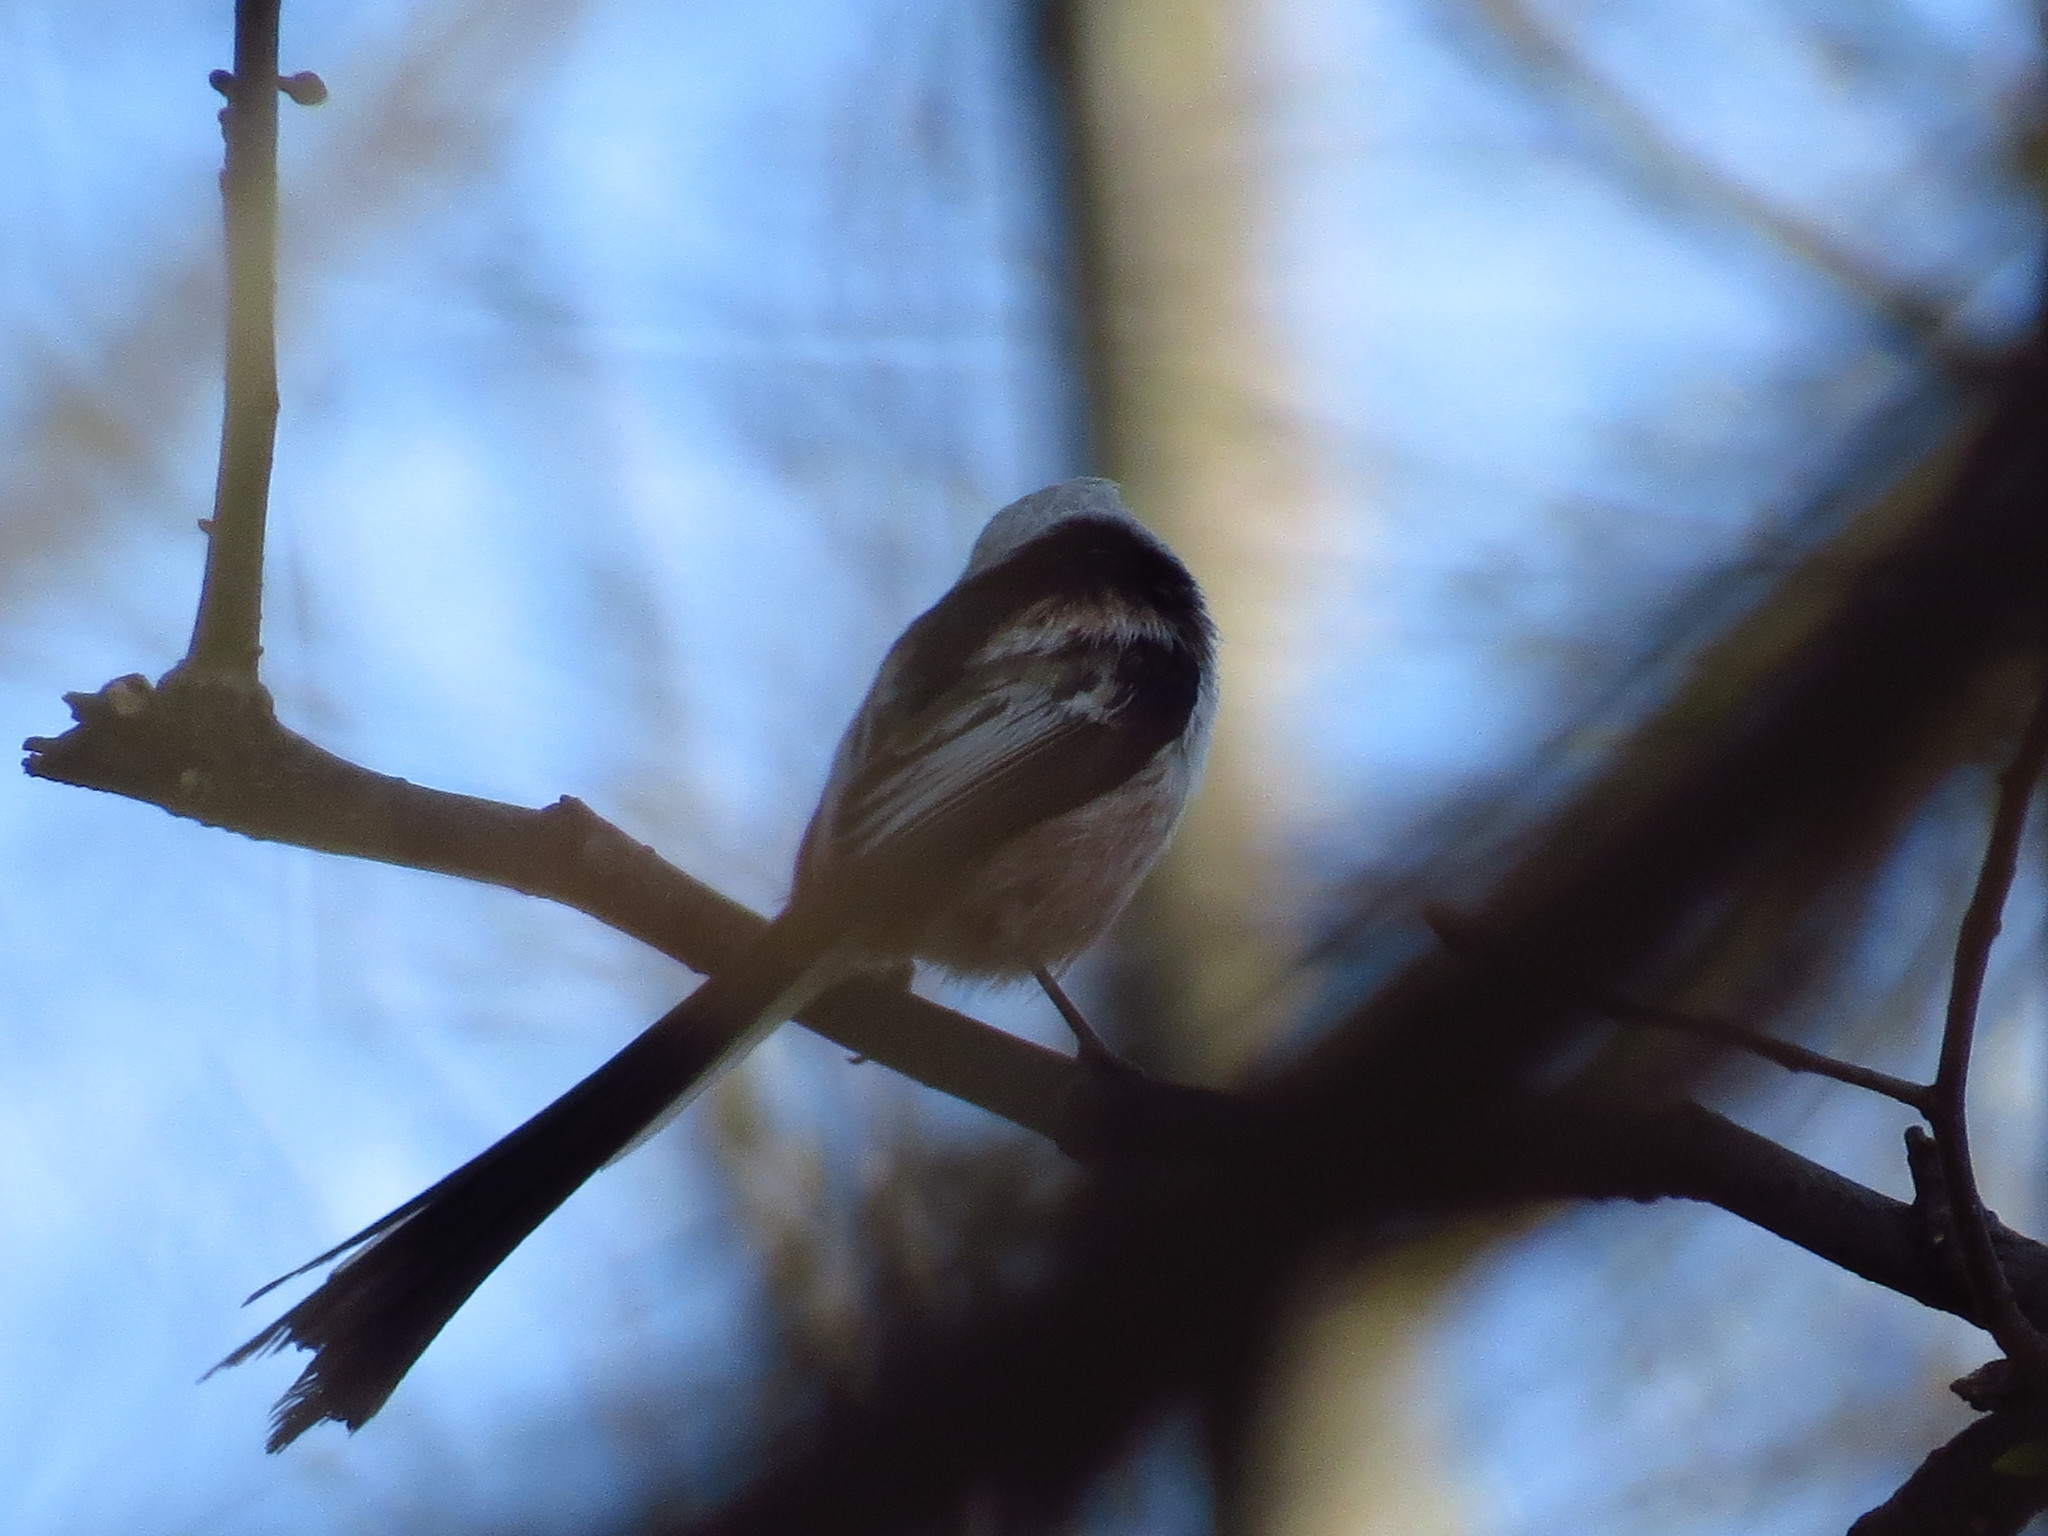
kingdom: Animalia
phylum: Chordata
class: Aves
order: Passeriformes
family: Aegithalidae
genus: Aegithalos
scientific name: Aegithalos caudatus
